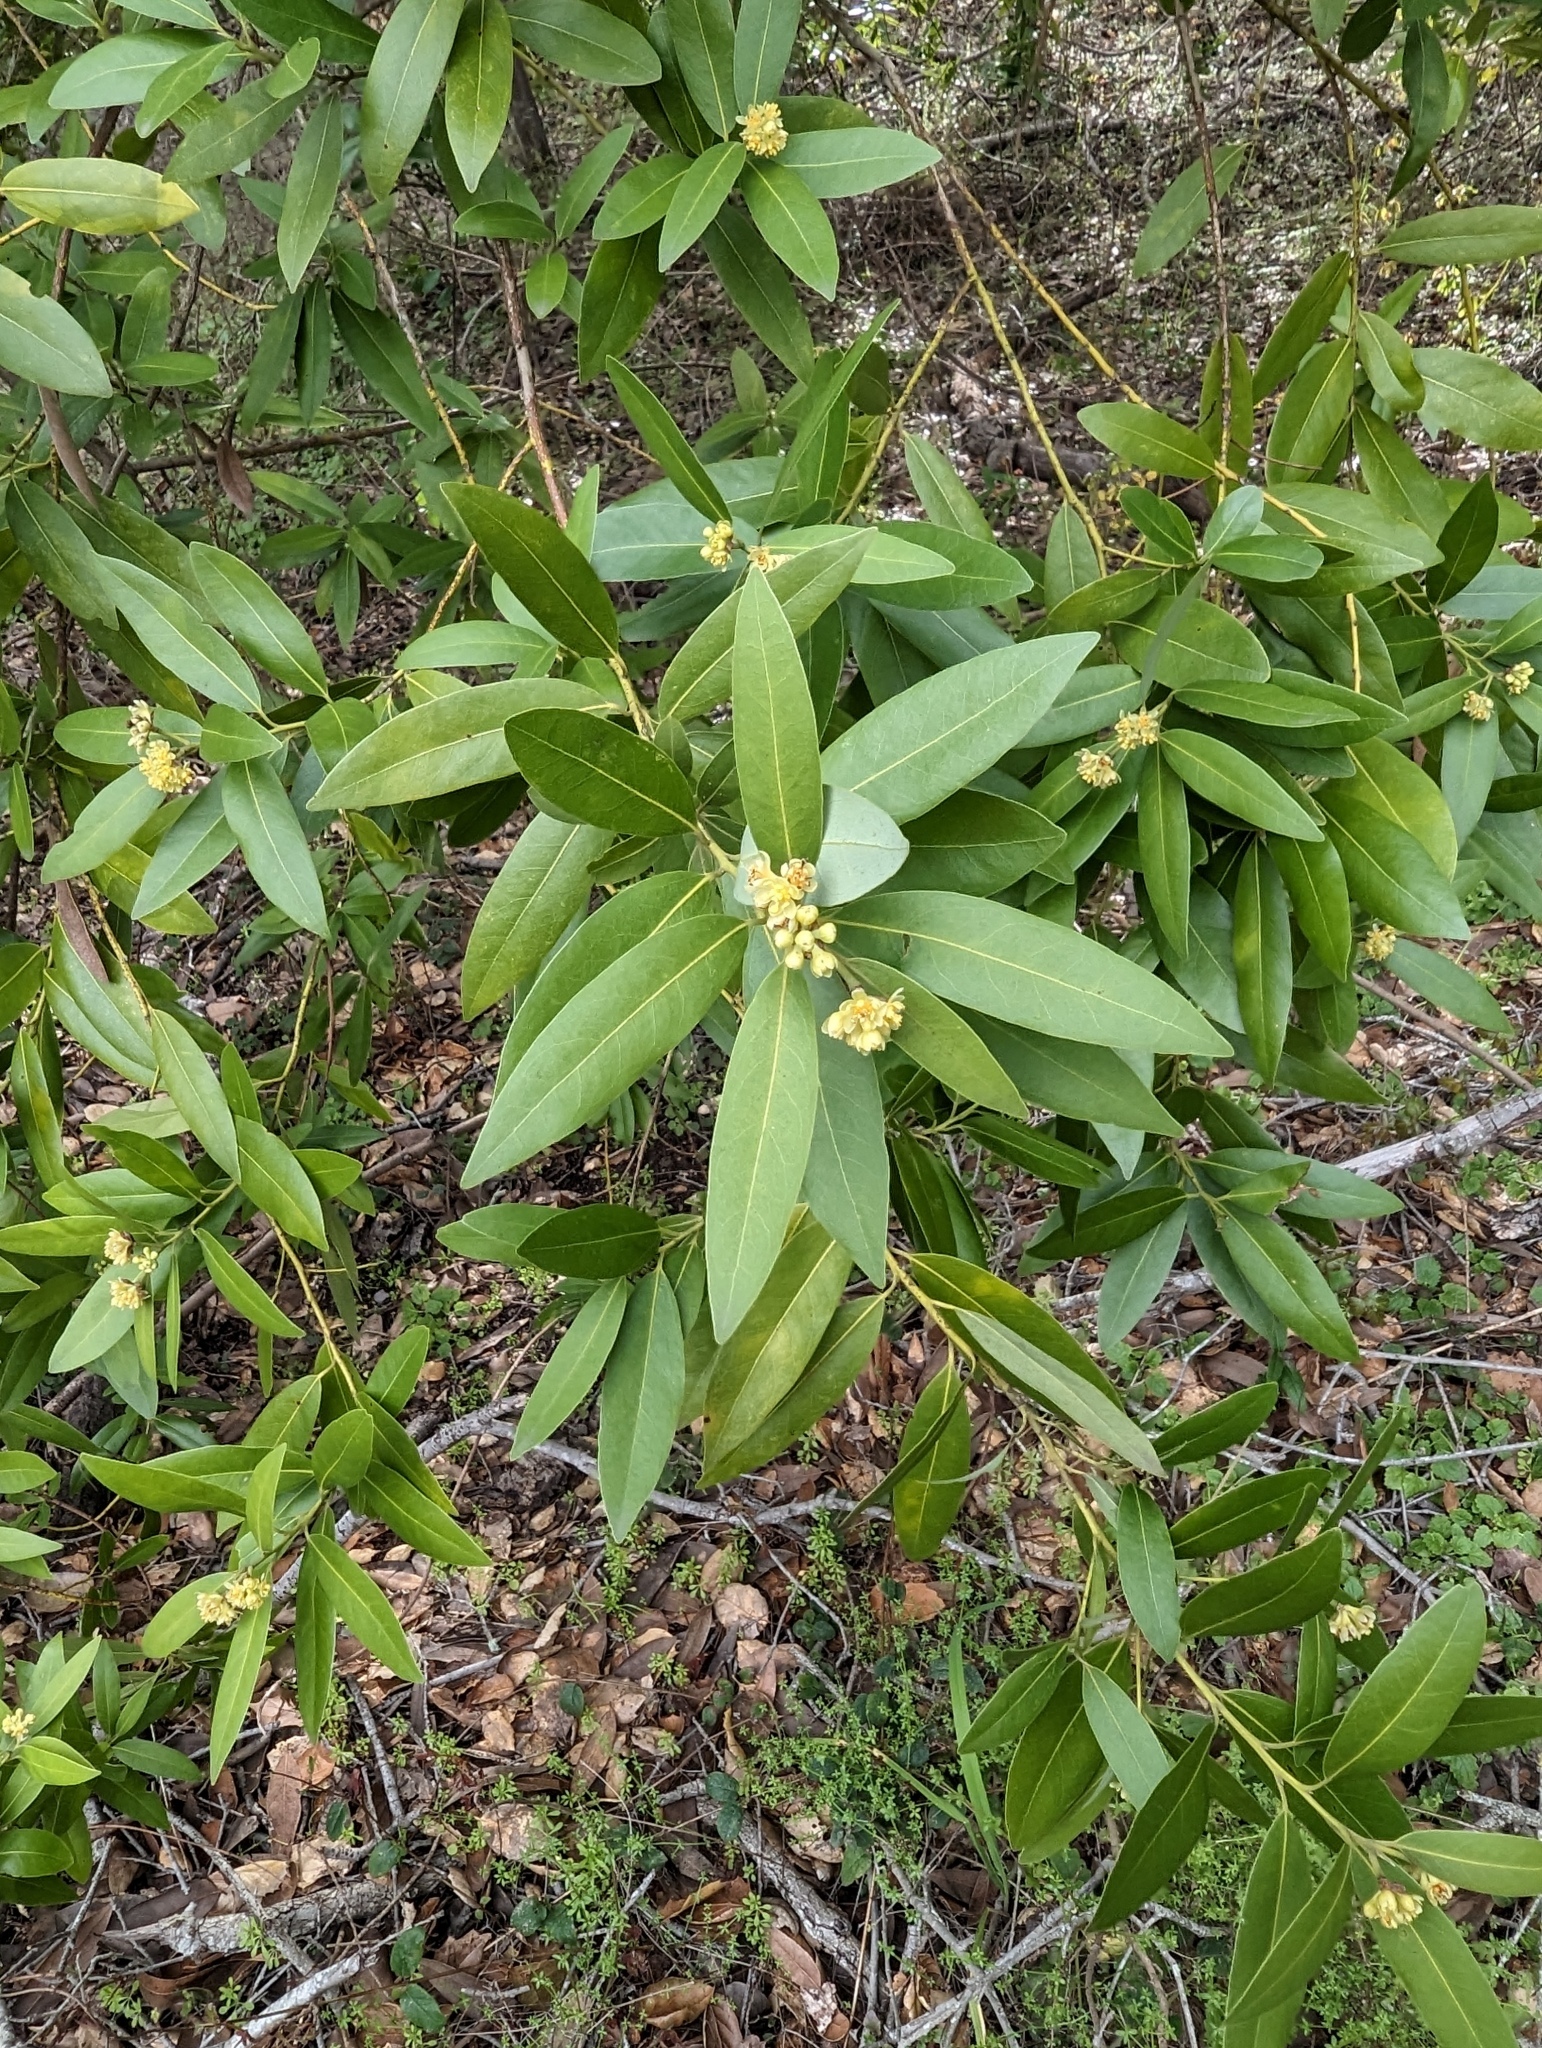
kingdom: Plantae
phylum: Tracheophyta
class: Magnoliopsida
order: Laurales
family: Lauraceae
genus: Umbellularia
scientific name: Umbellularia californica
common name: California bay
